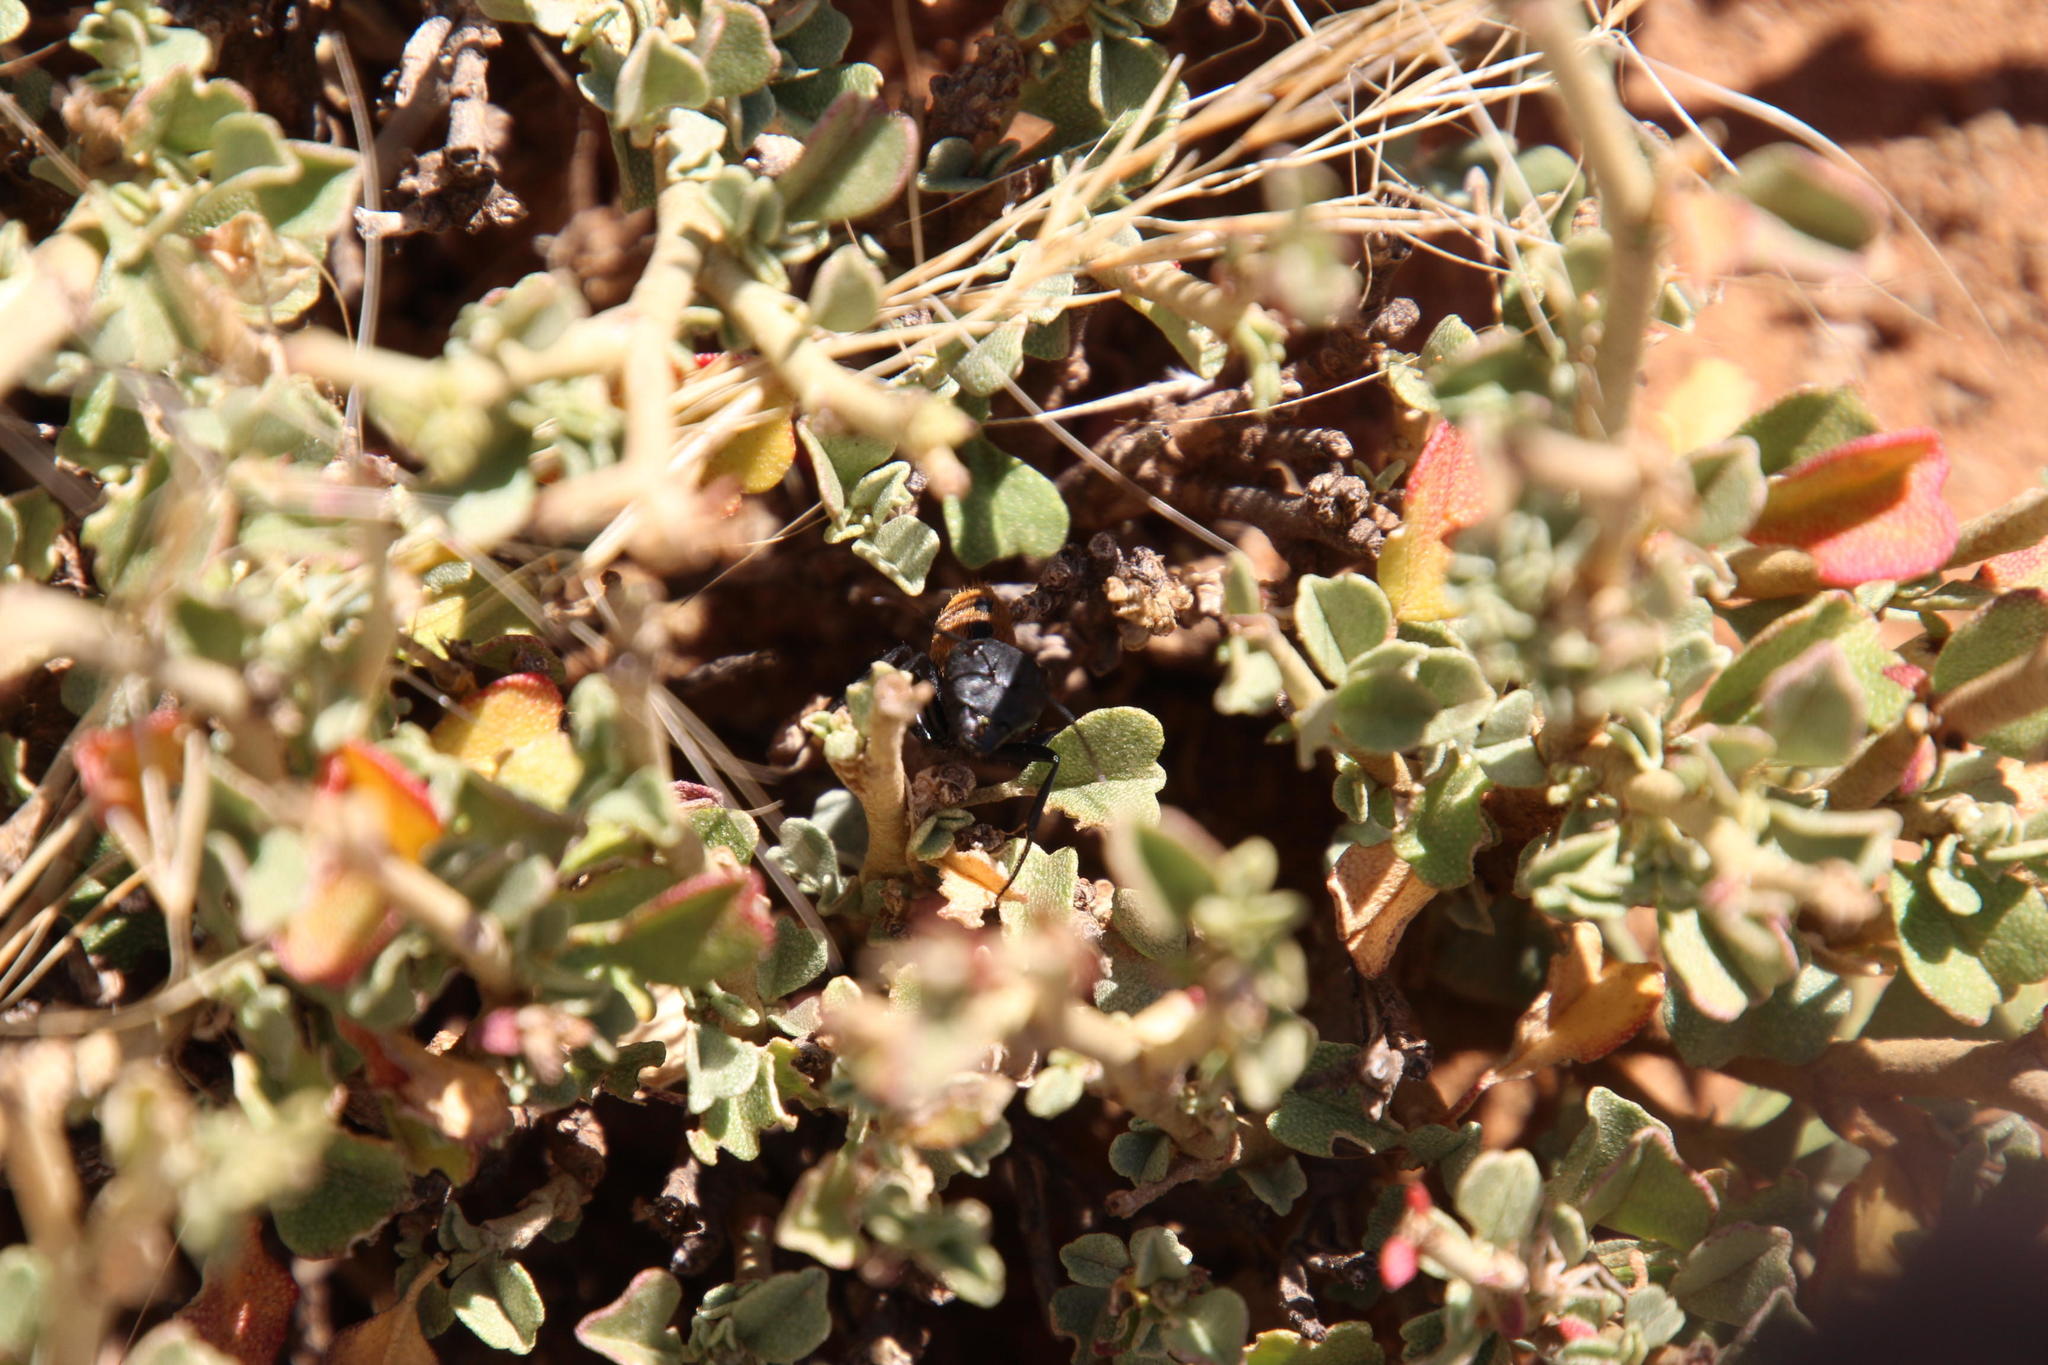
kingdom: Animalia
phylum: Arthropoda
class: Insecta
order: Hymenoptera
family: Formicidae
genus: Camponotus
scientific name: Camponotus fulvopilosus
